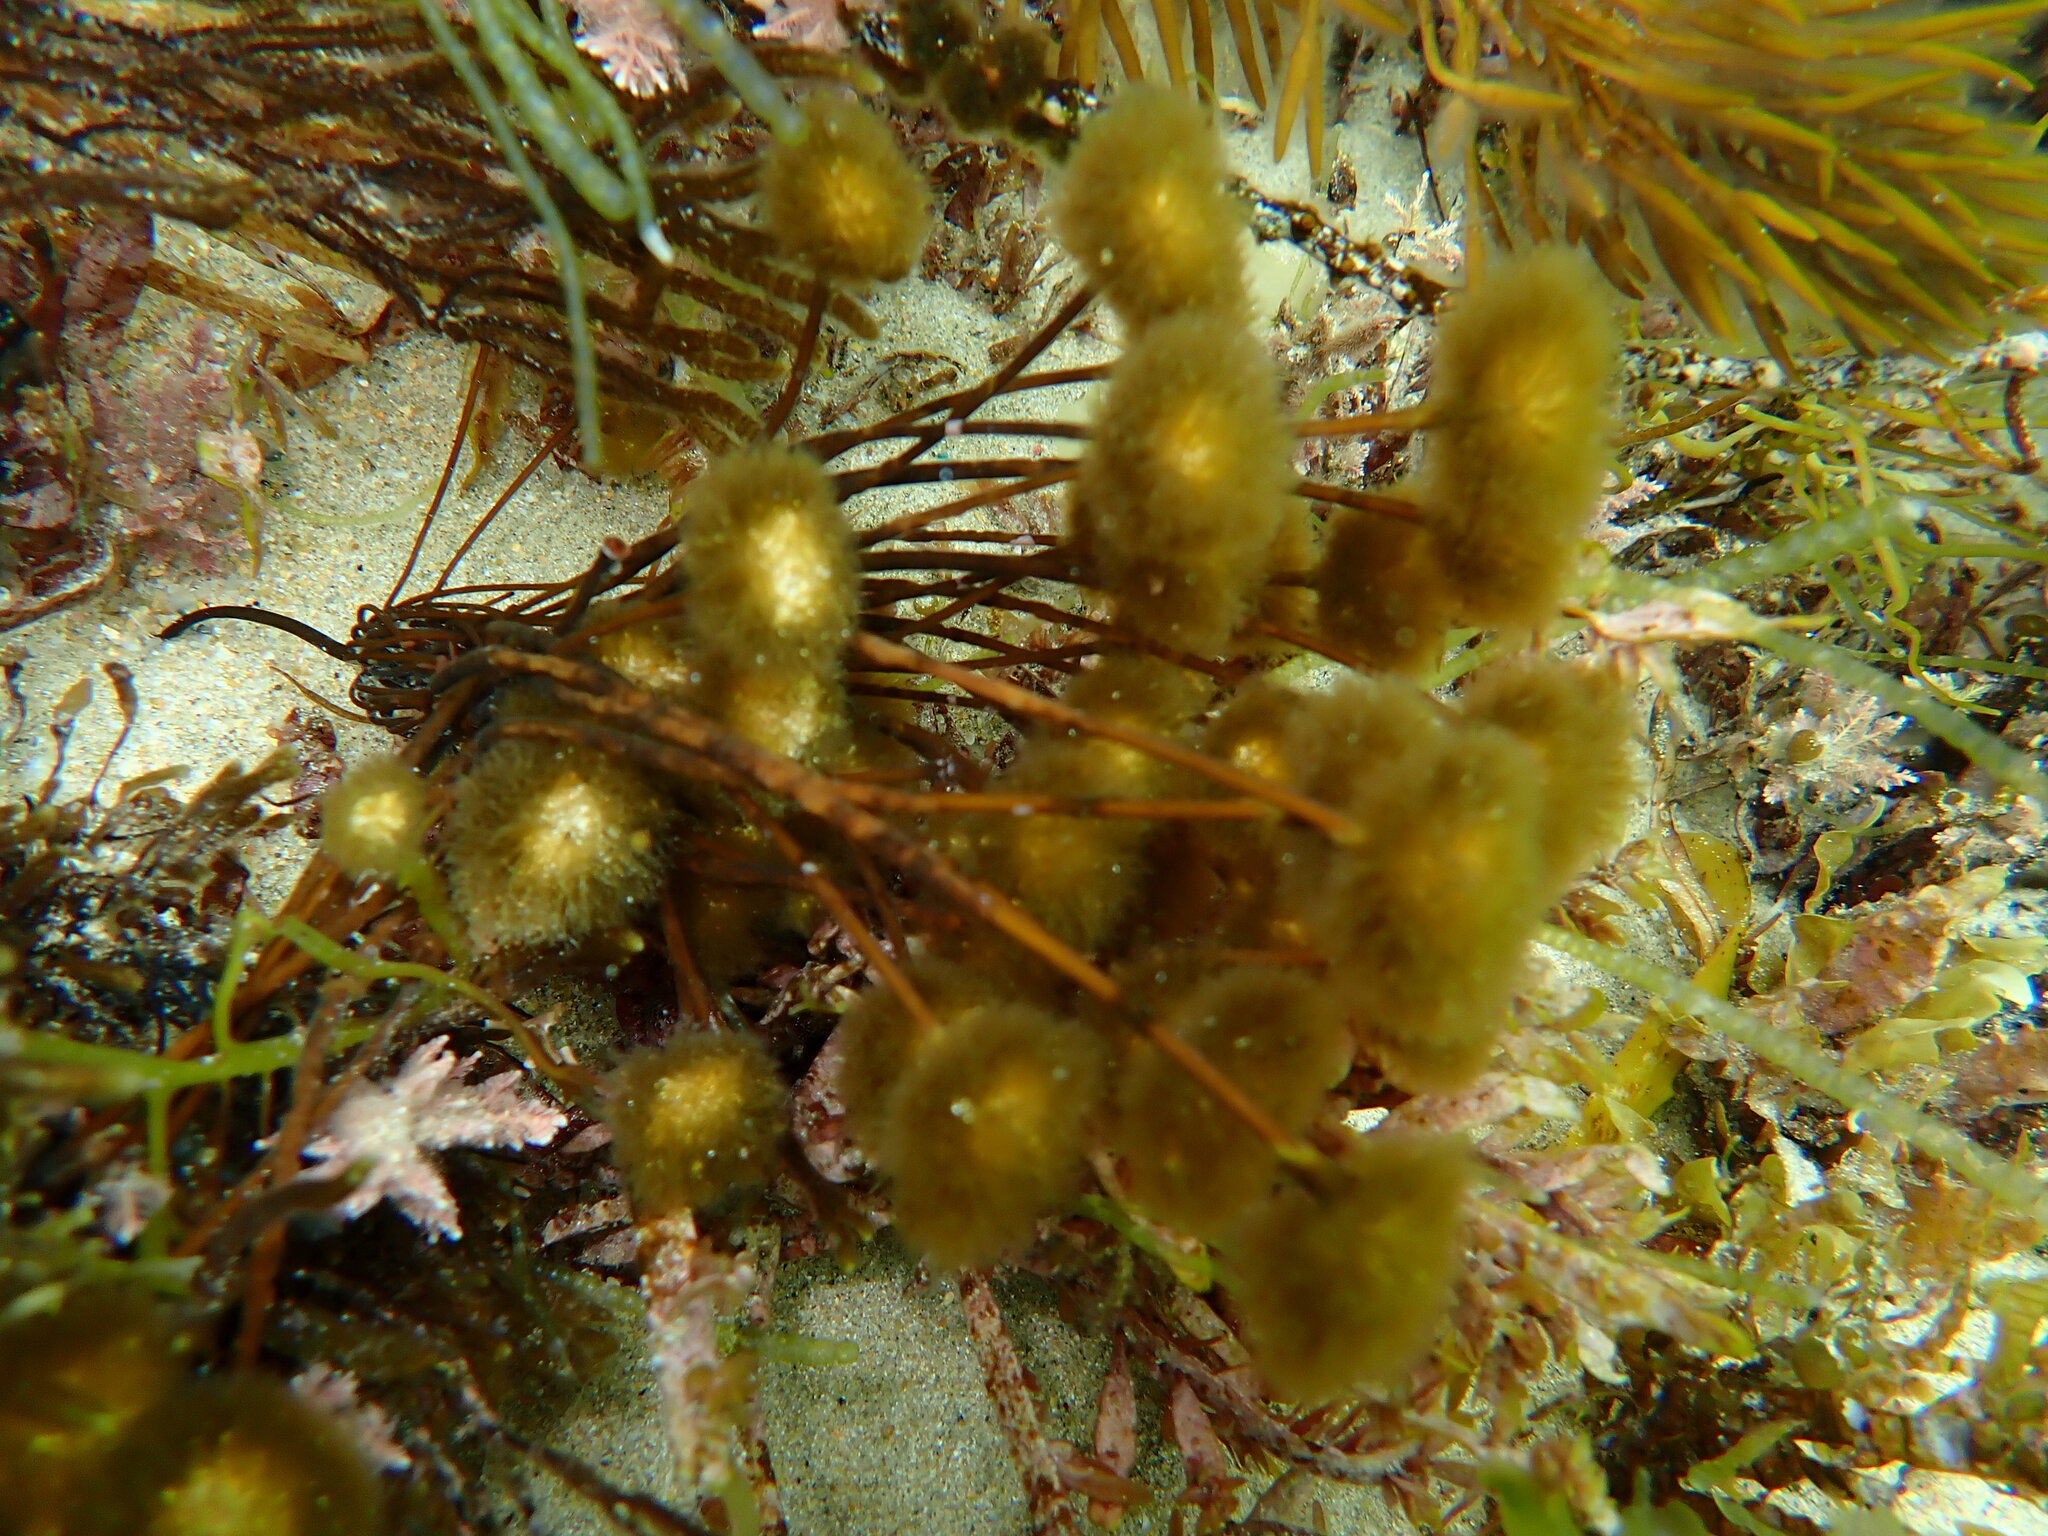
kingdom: Chromista
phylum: Ochrophyta
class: Phaeophyceae
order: Sporochnales
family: Sporochnaceae
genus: Bellotia
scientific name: Bellotia
